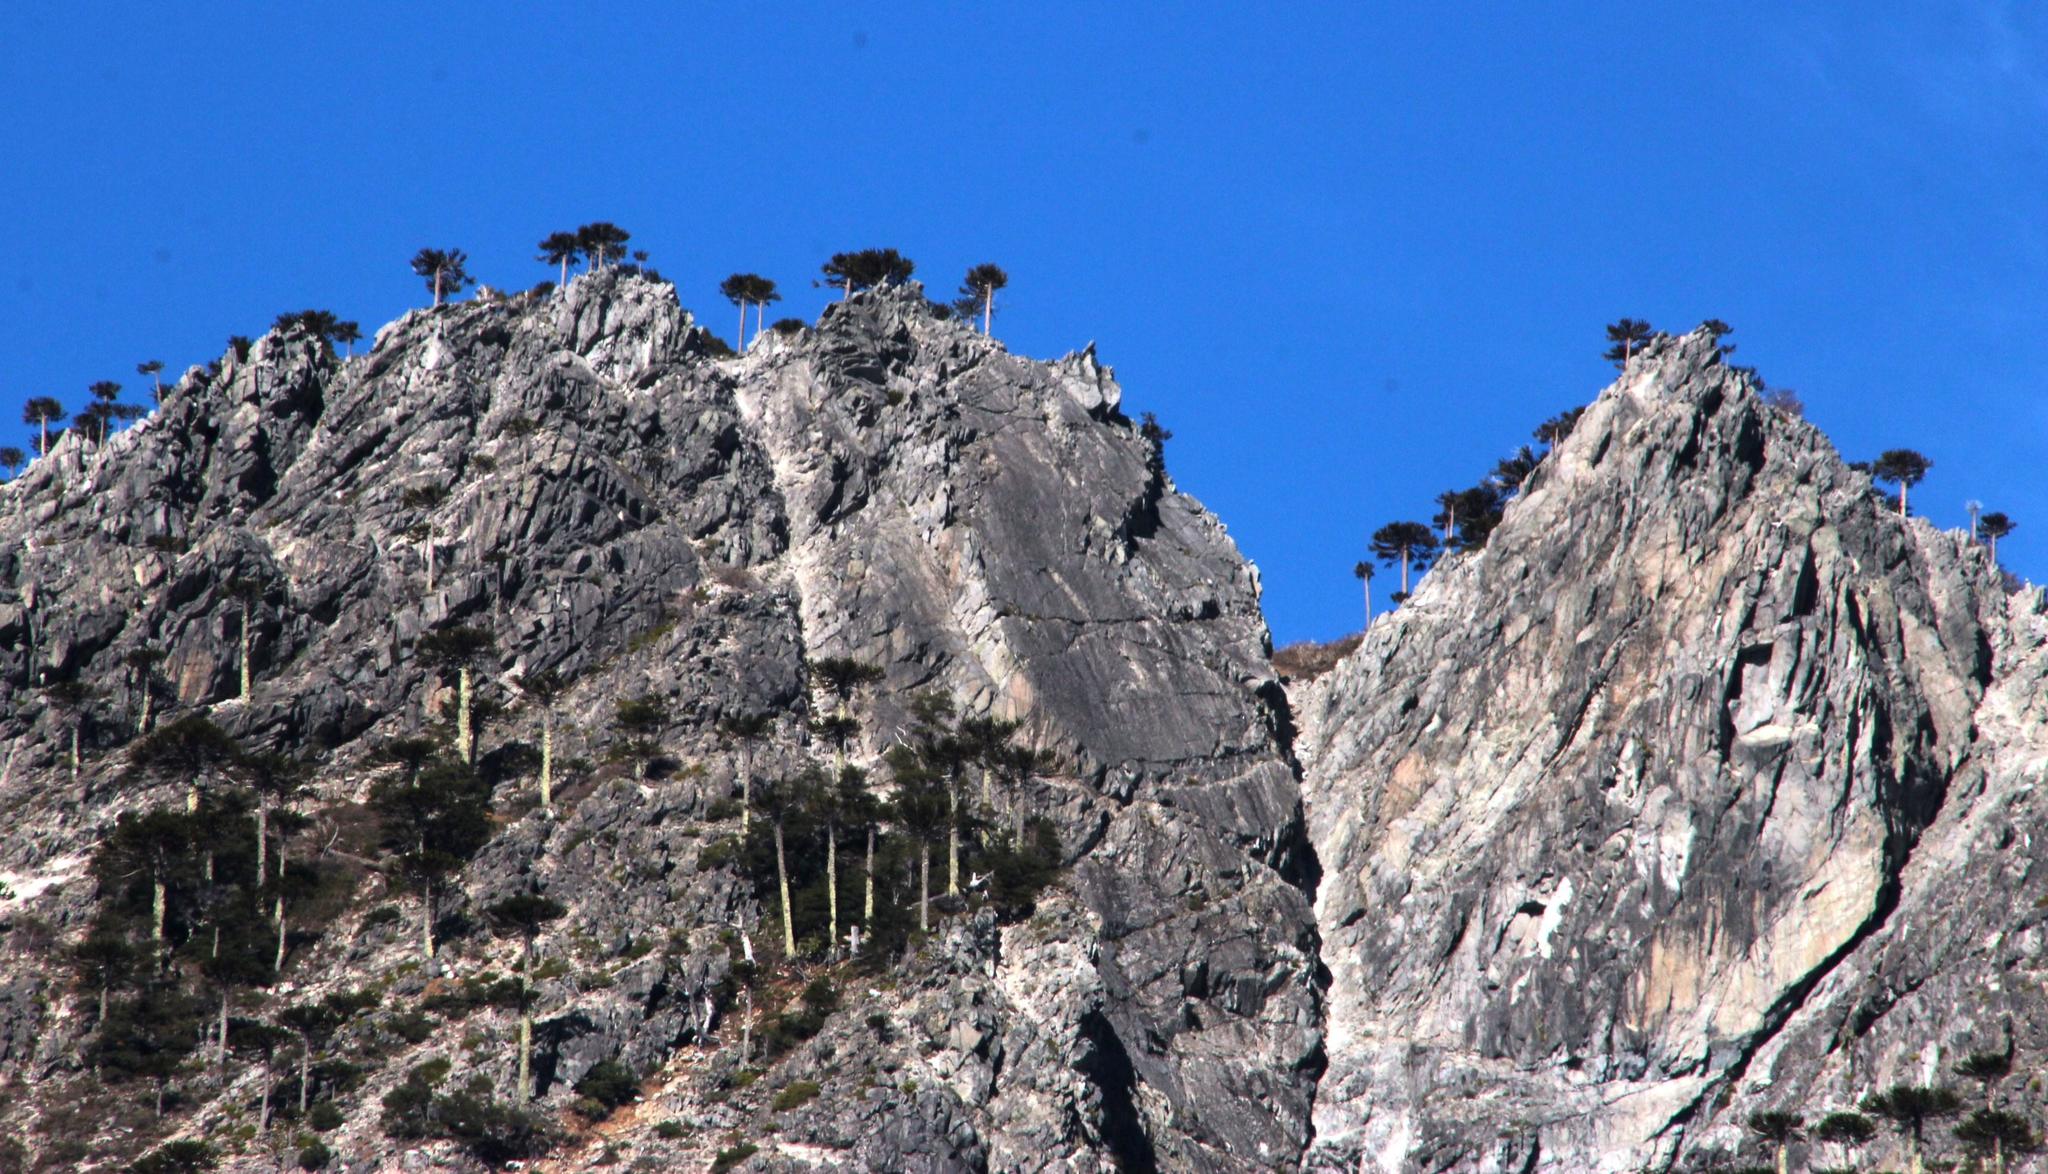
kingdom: Plantae
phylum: Tracheophyta
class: Pinopsida
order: Pinales
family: Araucariaceae
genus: Araucaria
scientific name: Araucaria araucana
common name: Monkey-puzzle
